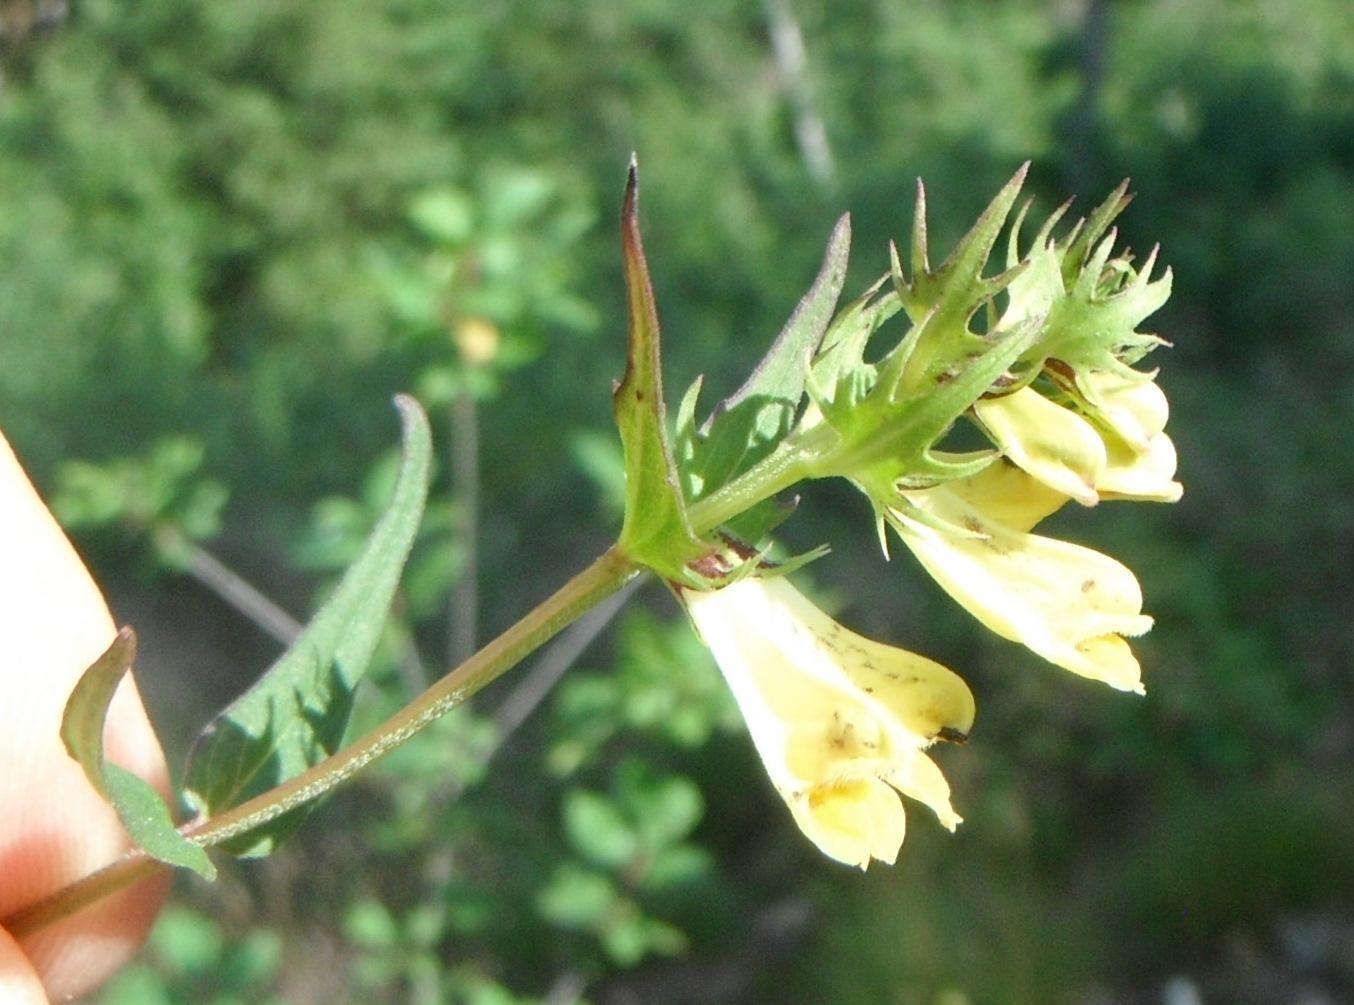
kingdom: Plantae
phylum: Tracheophyta
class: Magnoliopsida
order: Lamiales
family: Orobanchaceae
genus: Melampyrum
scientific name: Melampyrum pratense
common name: Common cow-wheat
